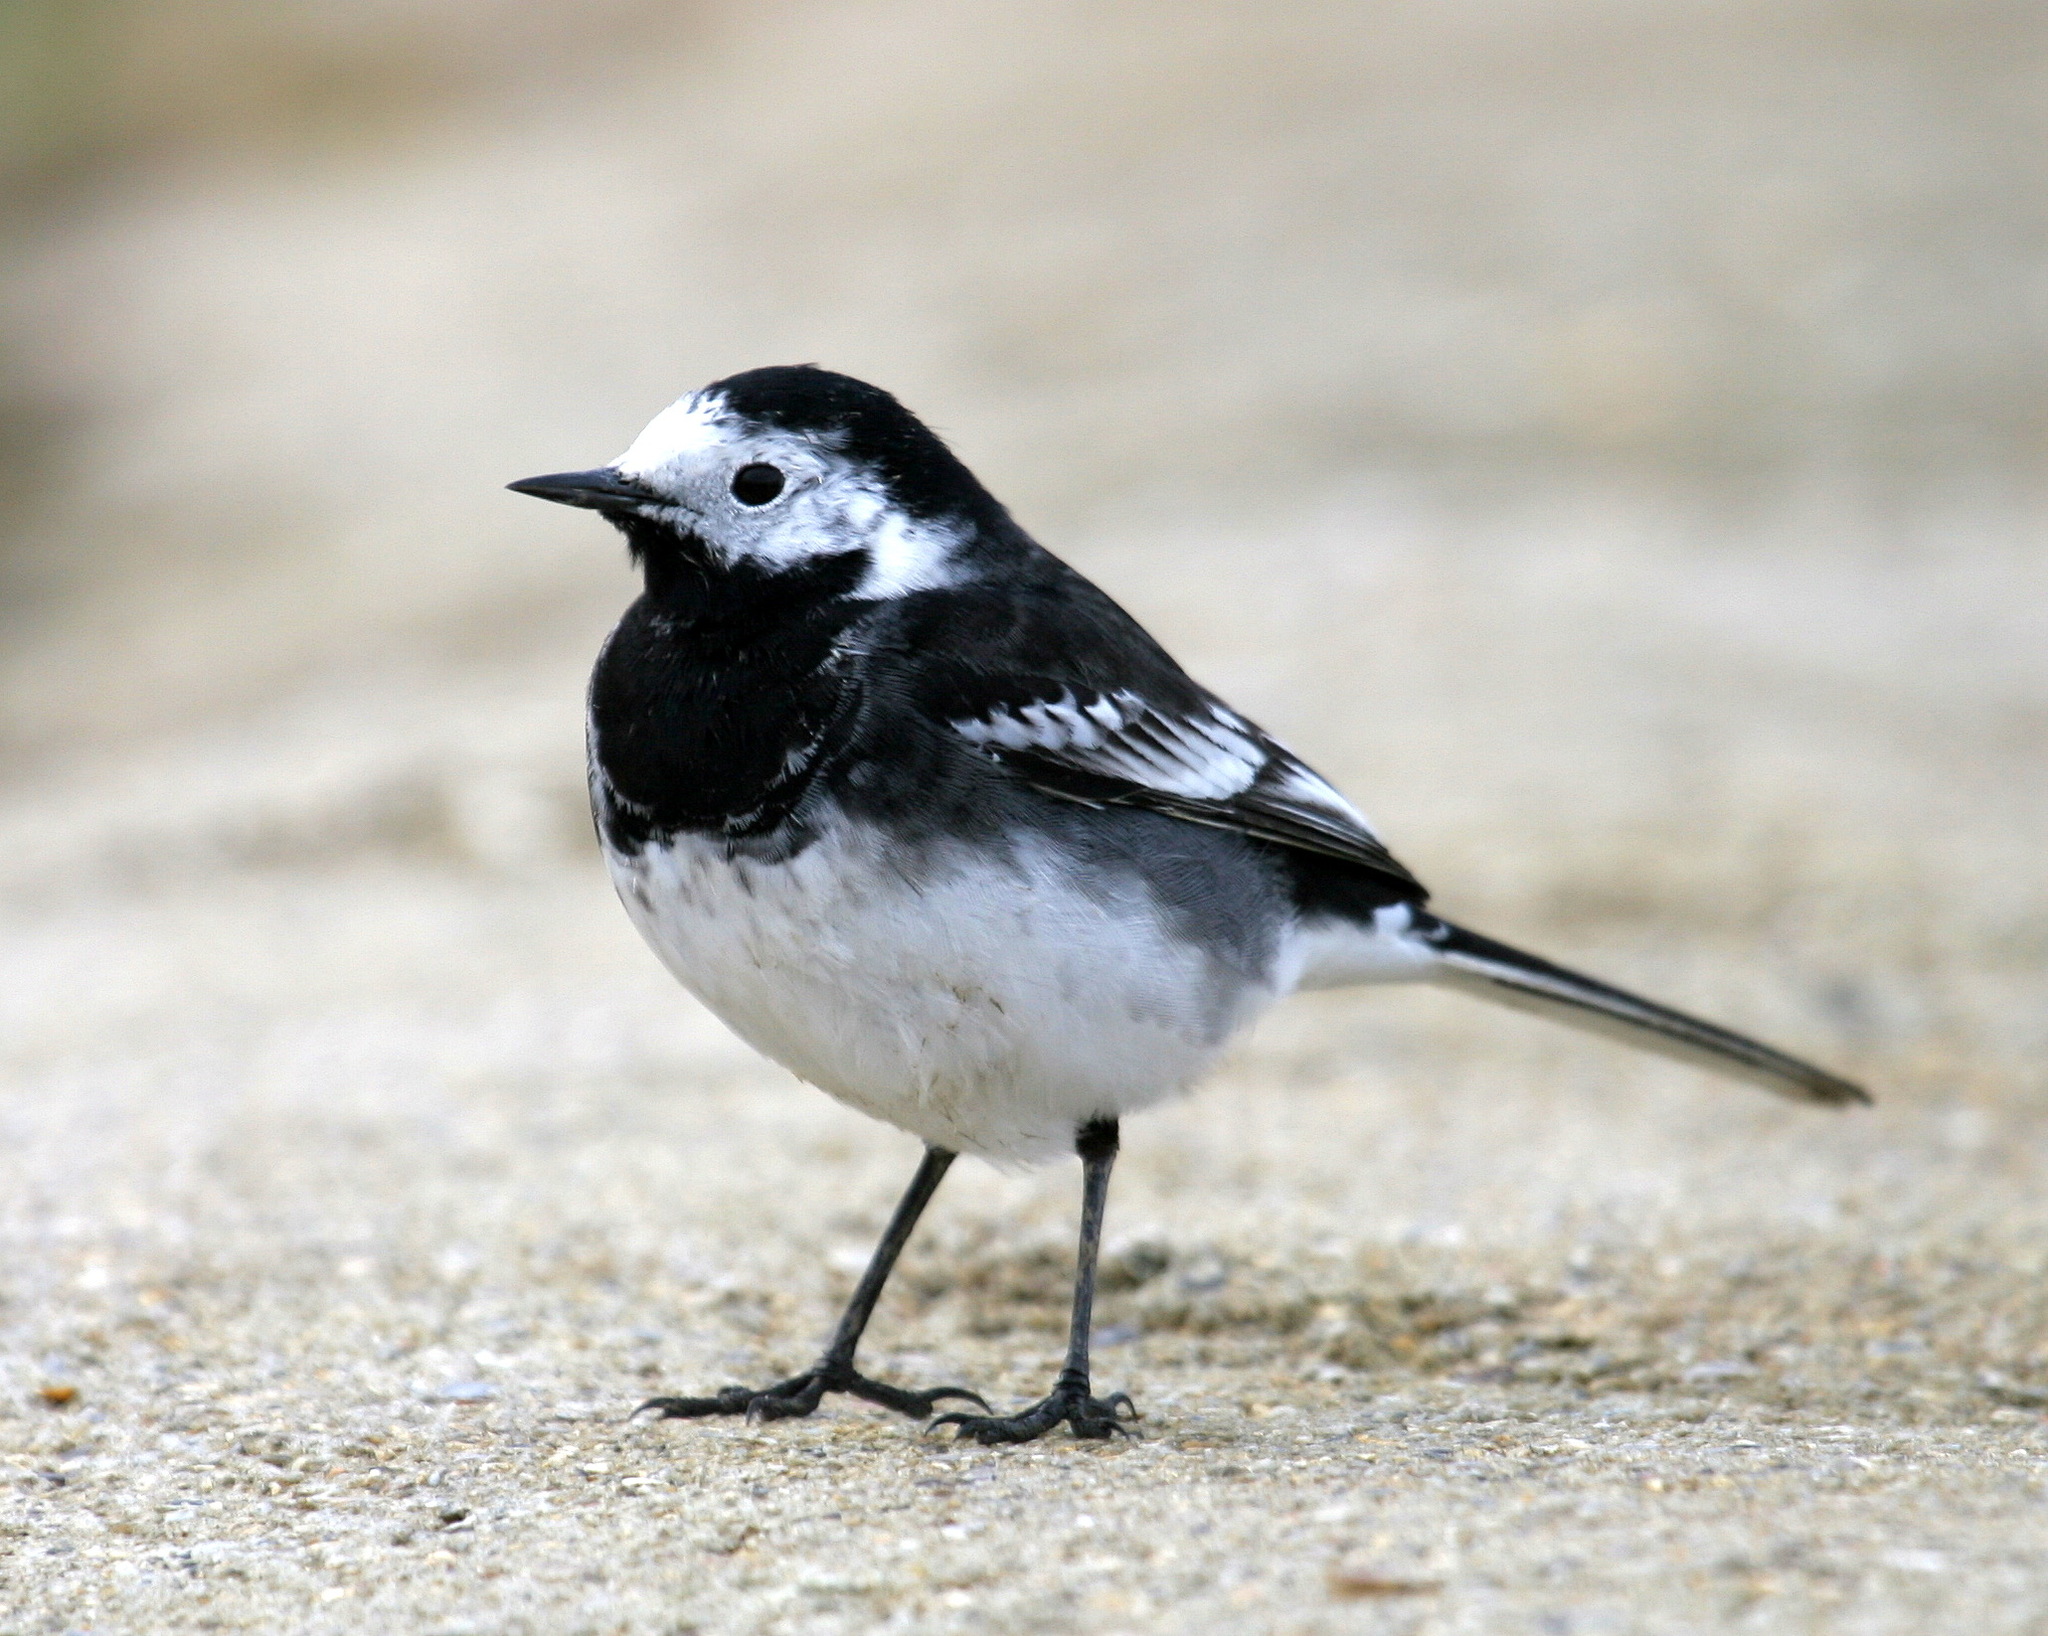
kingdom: Animalia
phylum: Chordata
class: Aves
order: Passeriformes
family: Motacillidae
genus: Motacilla
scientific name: Motacilla alba
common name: White wagtail
